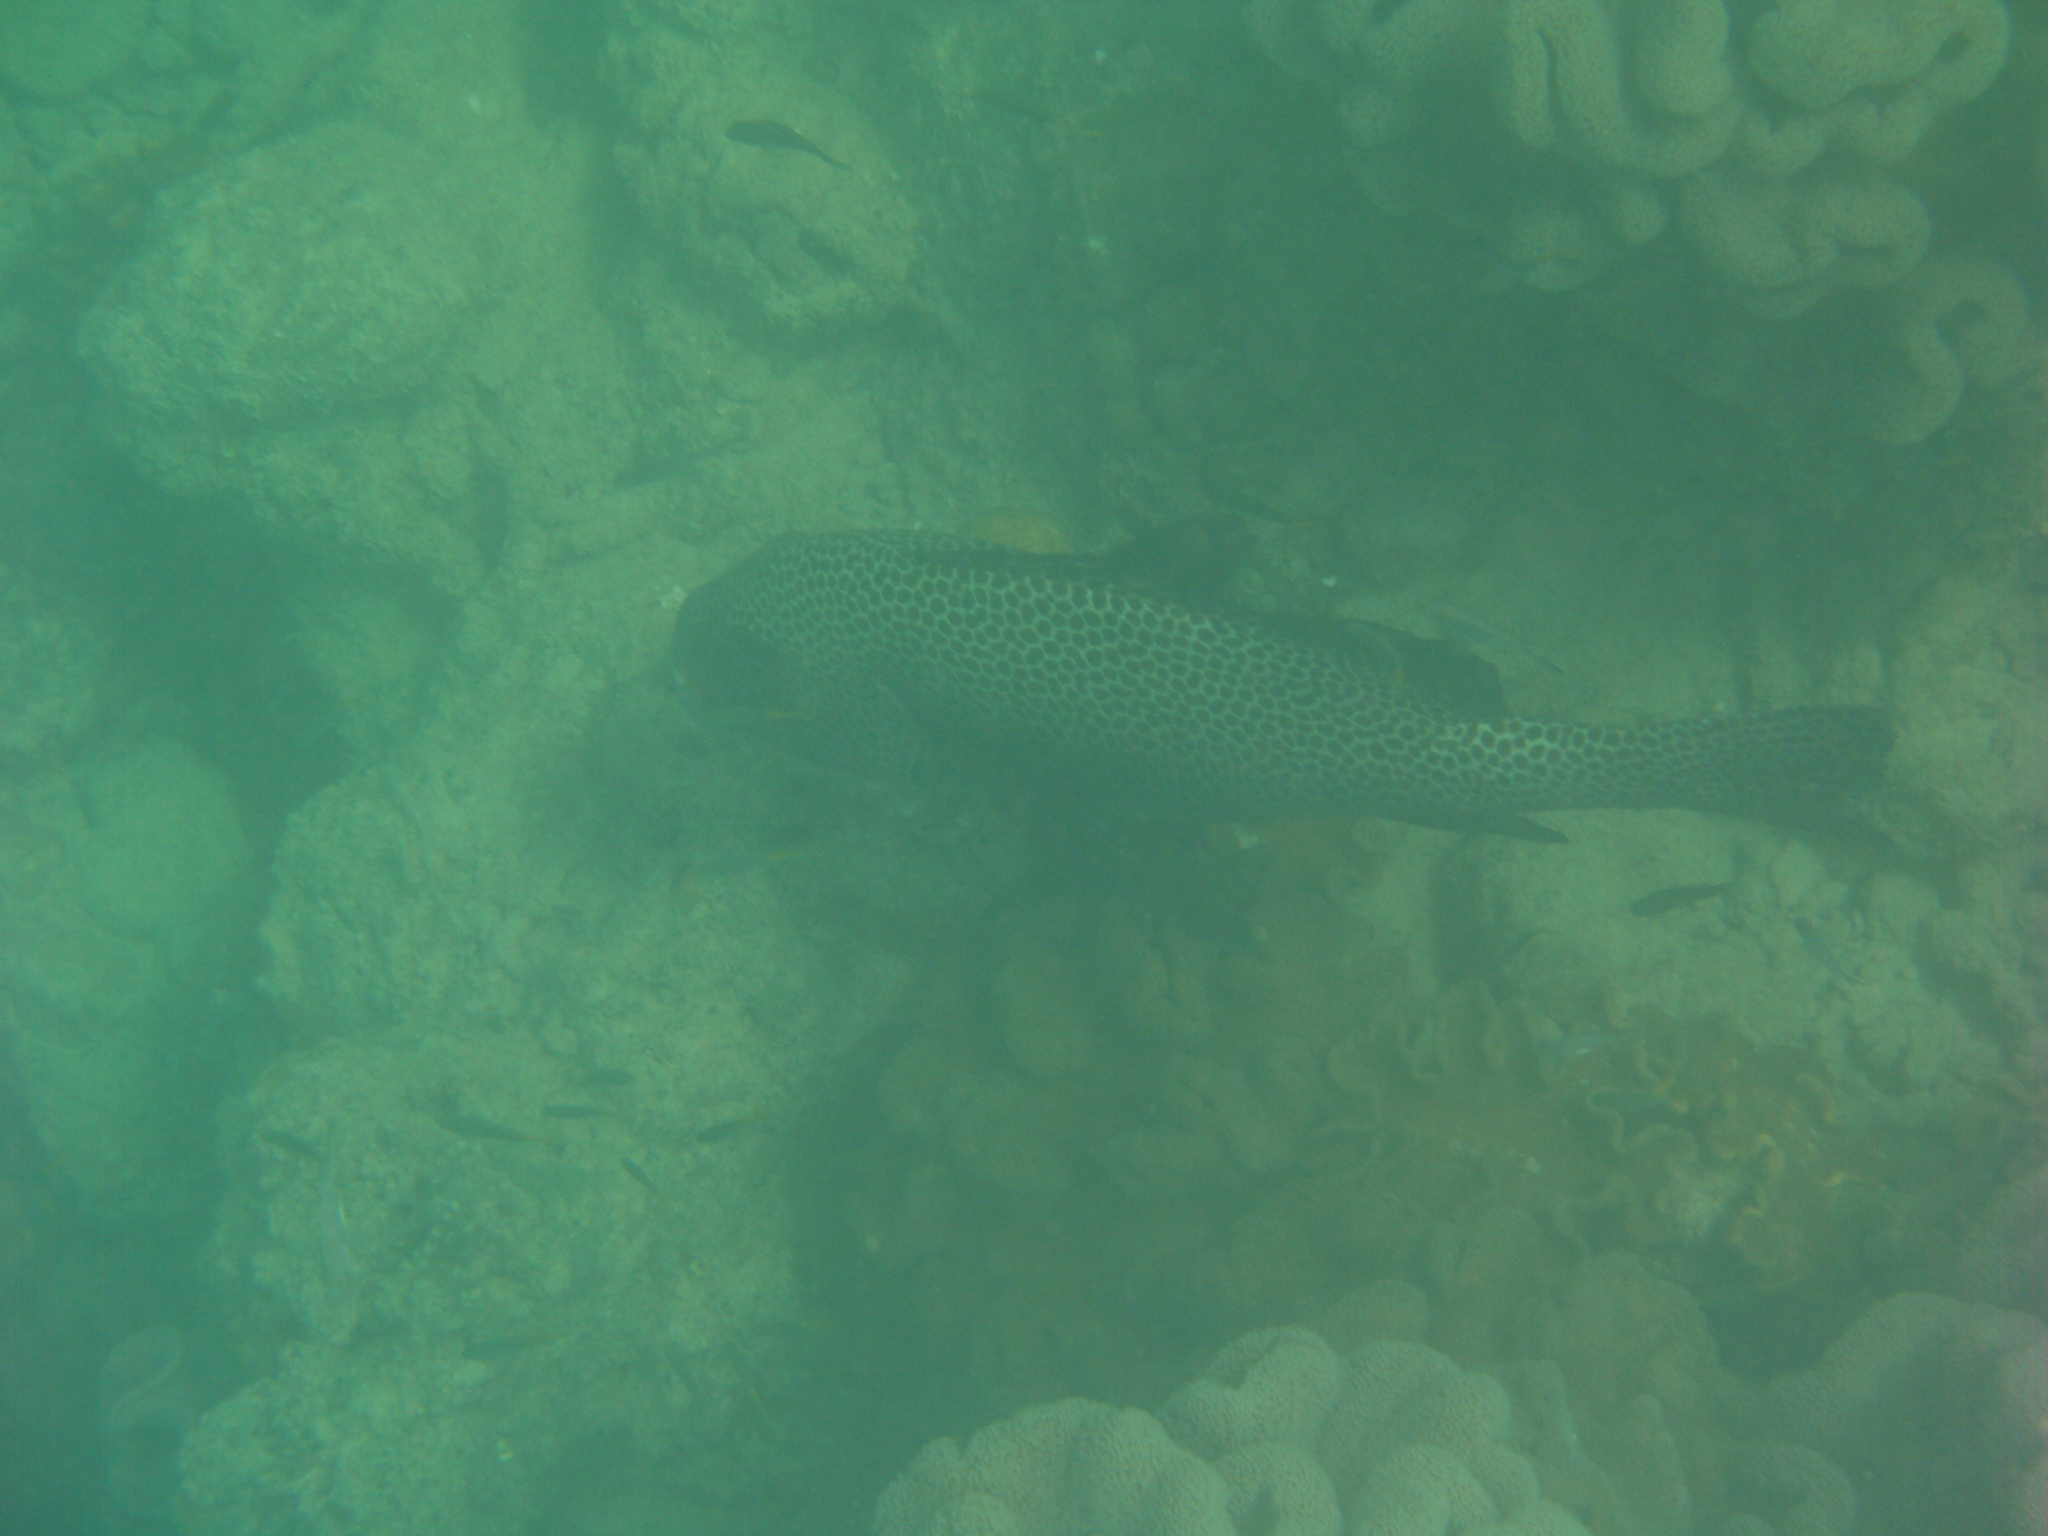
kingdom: Animalia
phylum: Chordata
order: Perciformes
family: Haemulidae
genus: Plectorhinchus
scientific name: Plectorhinchus chaetodonoides
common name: Harlequin sweetlips
